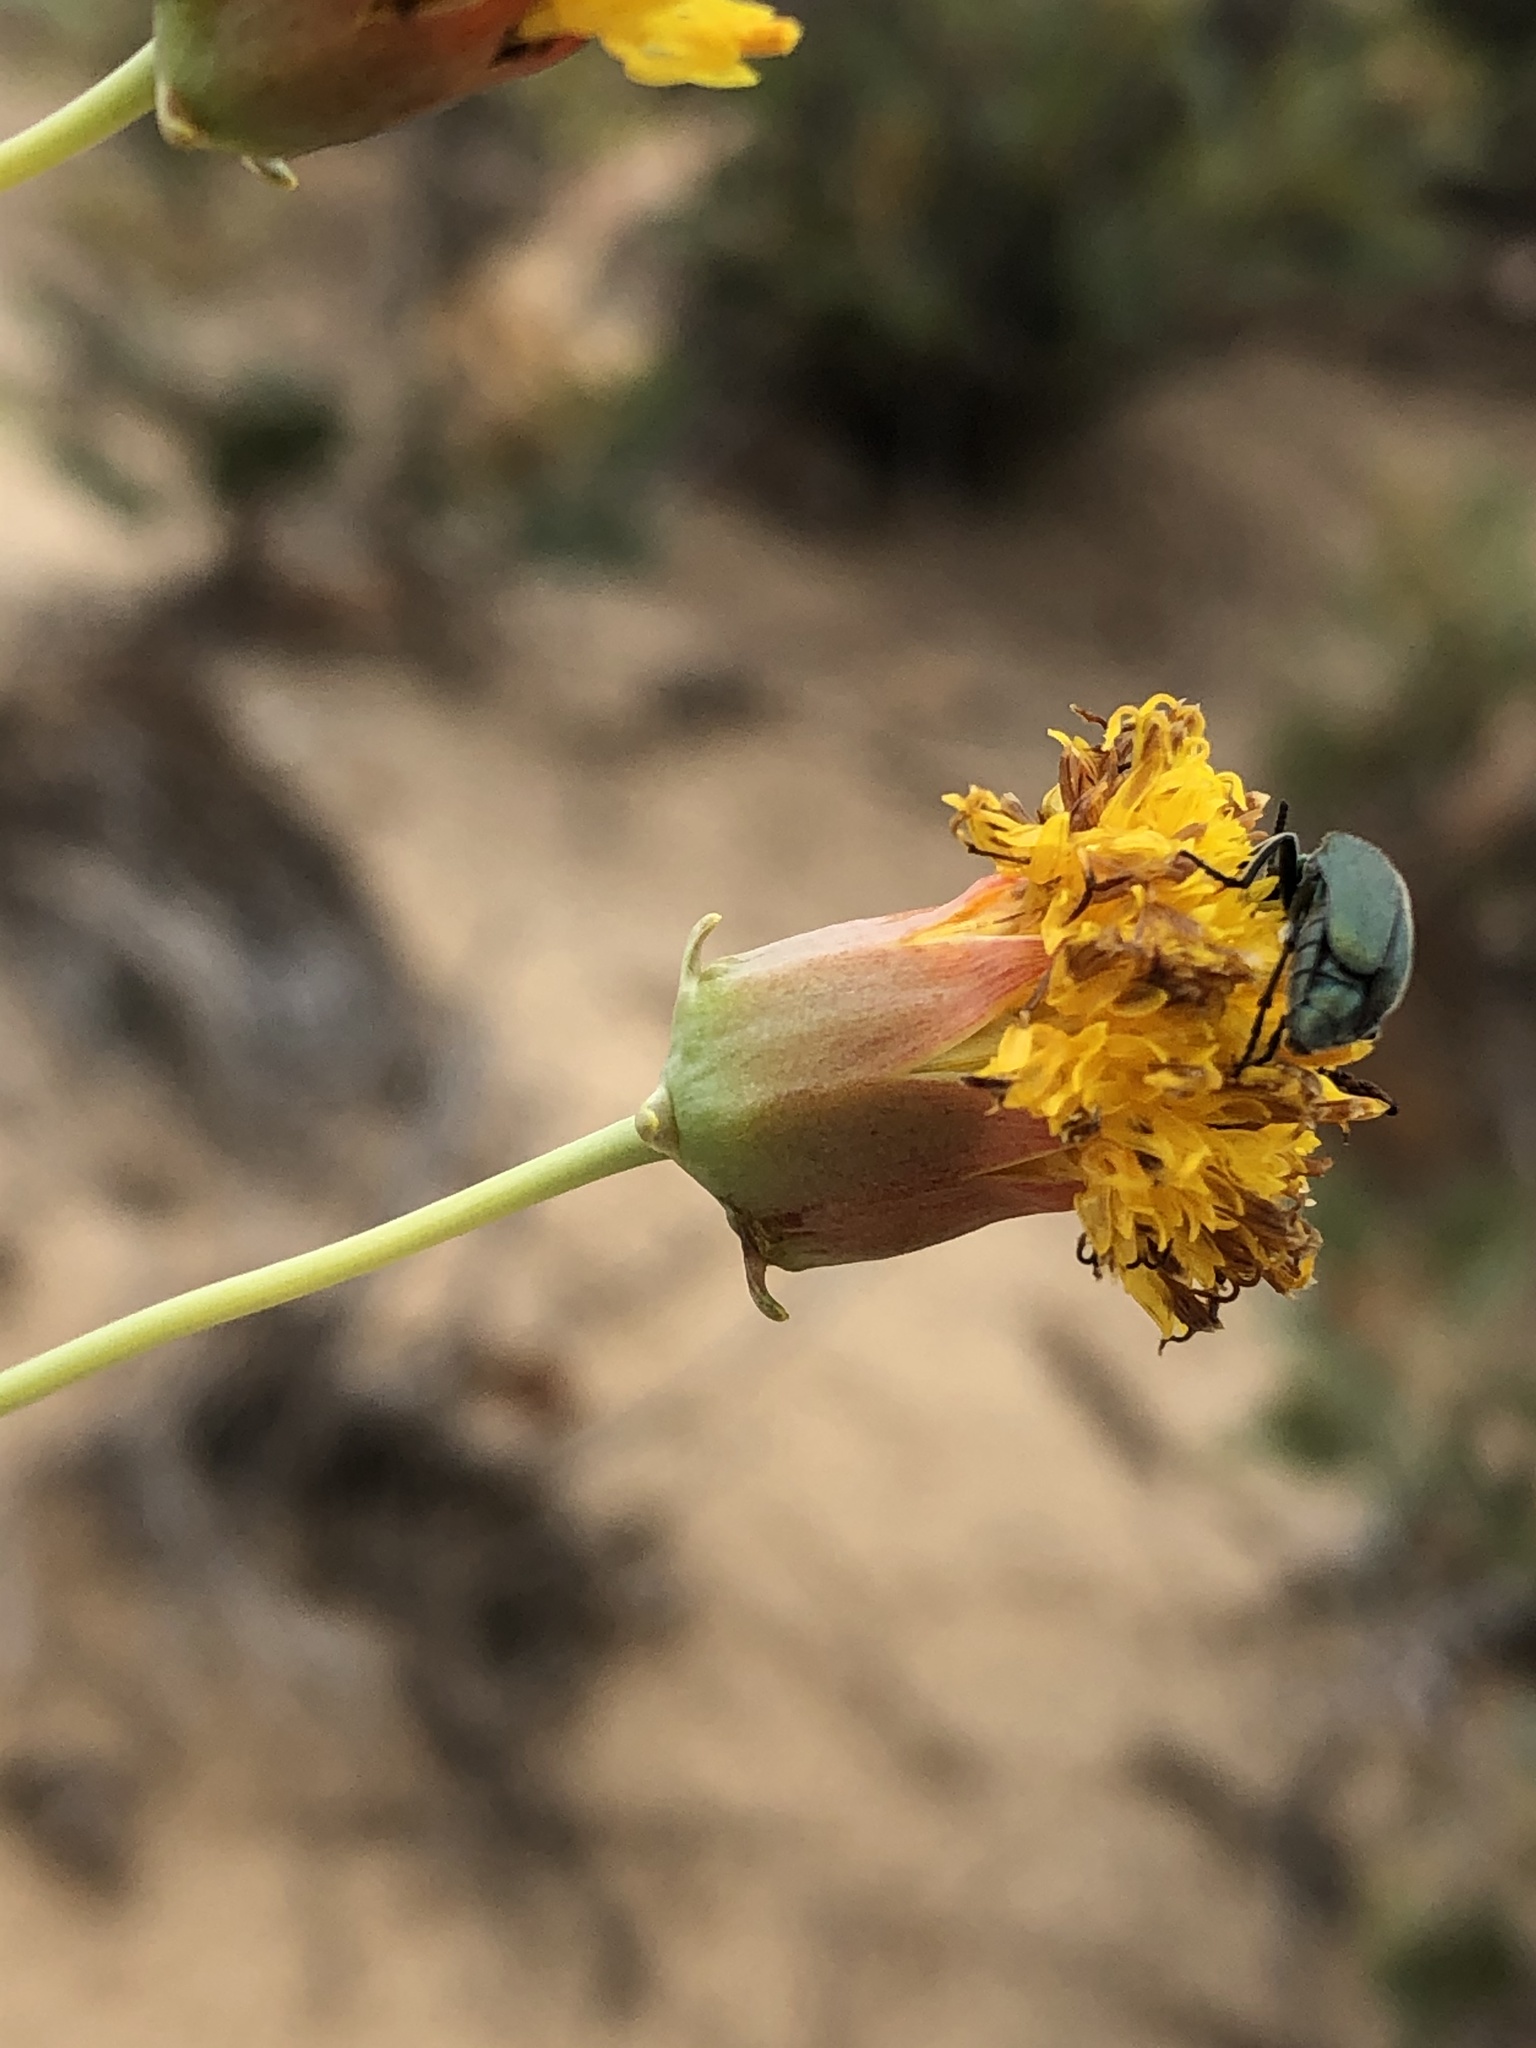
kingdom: Plantae
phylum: Tracheophyta
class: Magnoliopsida
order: Asterales
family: Asteraceae
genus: Thelesperma
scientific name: Thelesperma megapotamicum
